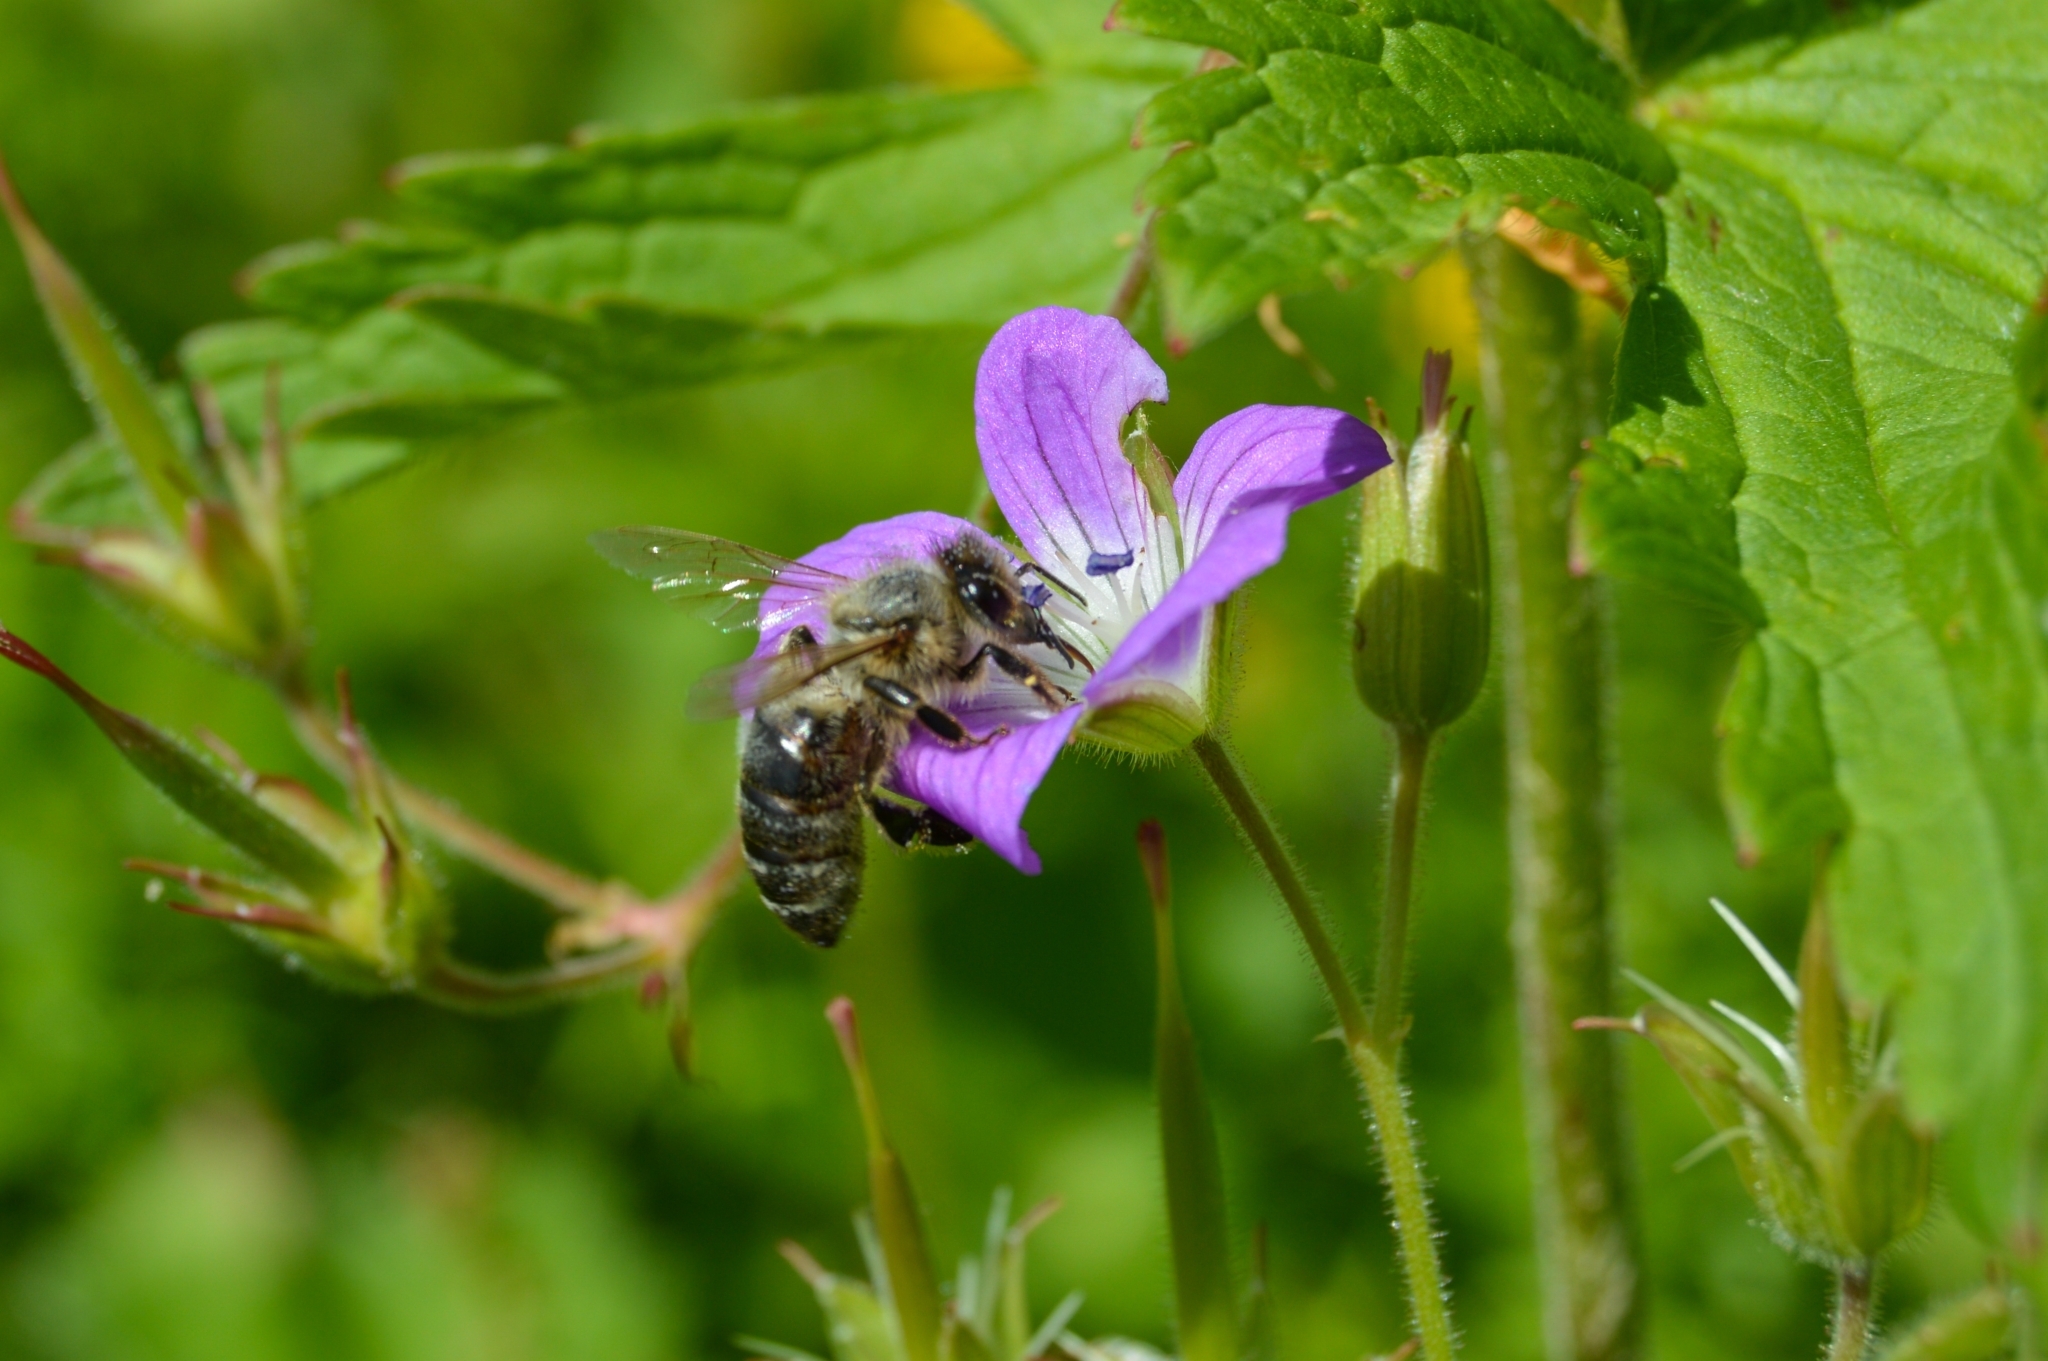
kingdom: Animalia
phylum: Arthropoda
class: Insecta
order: Hymenoptera
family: Apidae
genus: Apis
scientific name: Apis mellifera
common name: Honey bee
